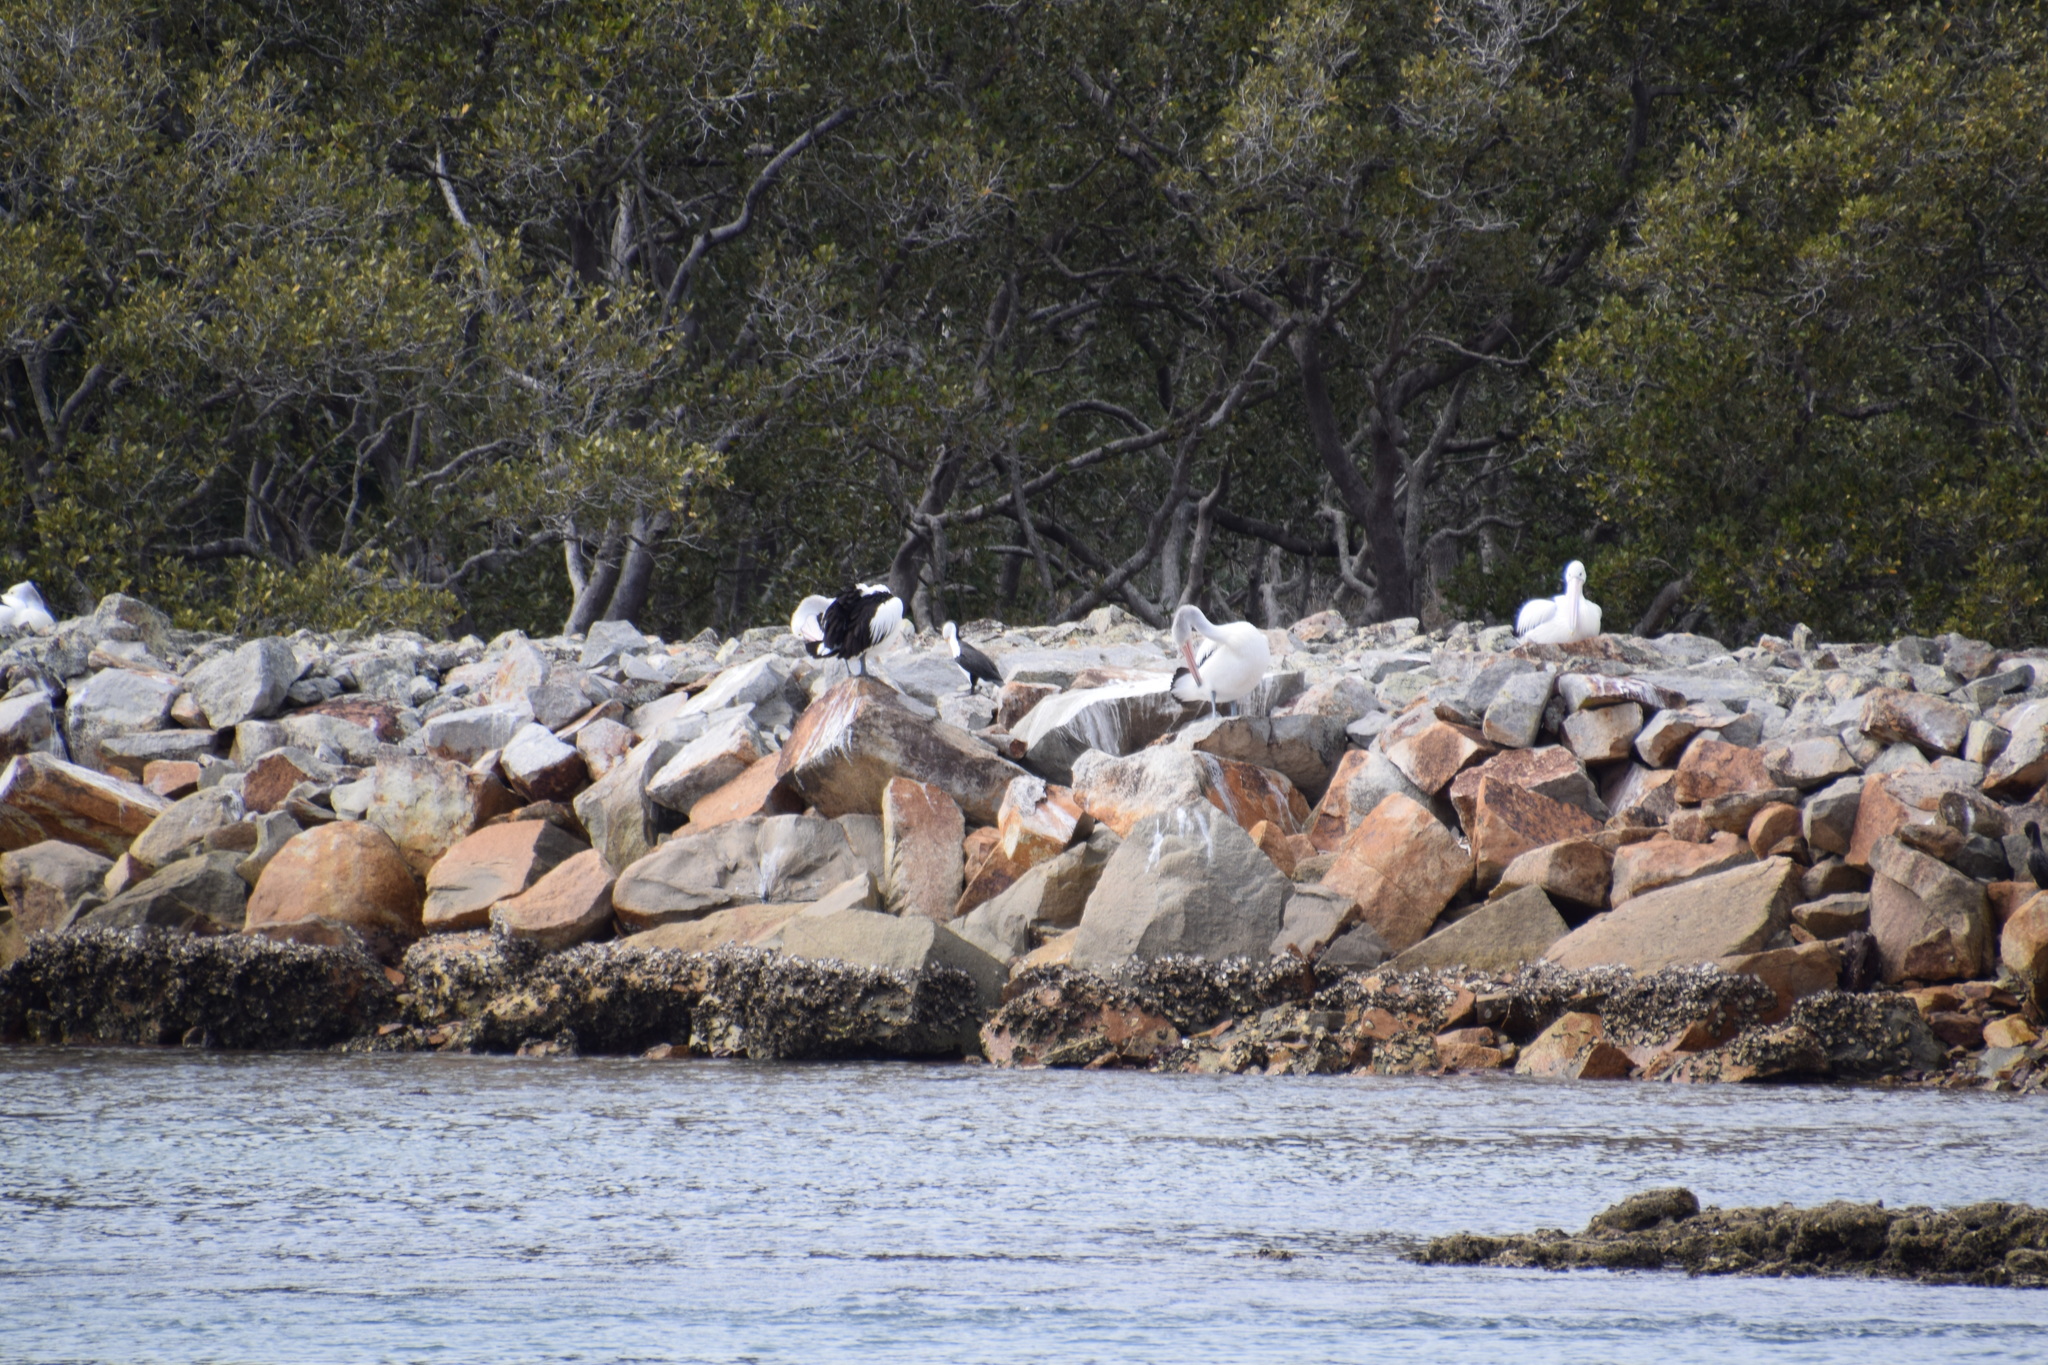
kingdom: Animalia
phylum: Chordata
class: Aves
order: Pelecaniformes
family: Pelecanidae
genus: Pelecanus
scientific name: Pelecanus conspicillatus
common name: Australian pelican
